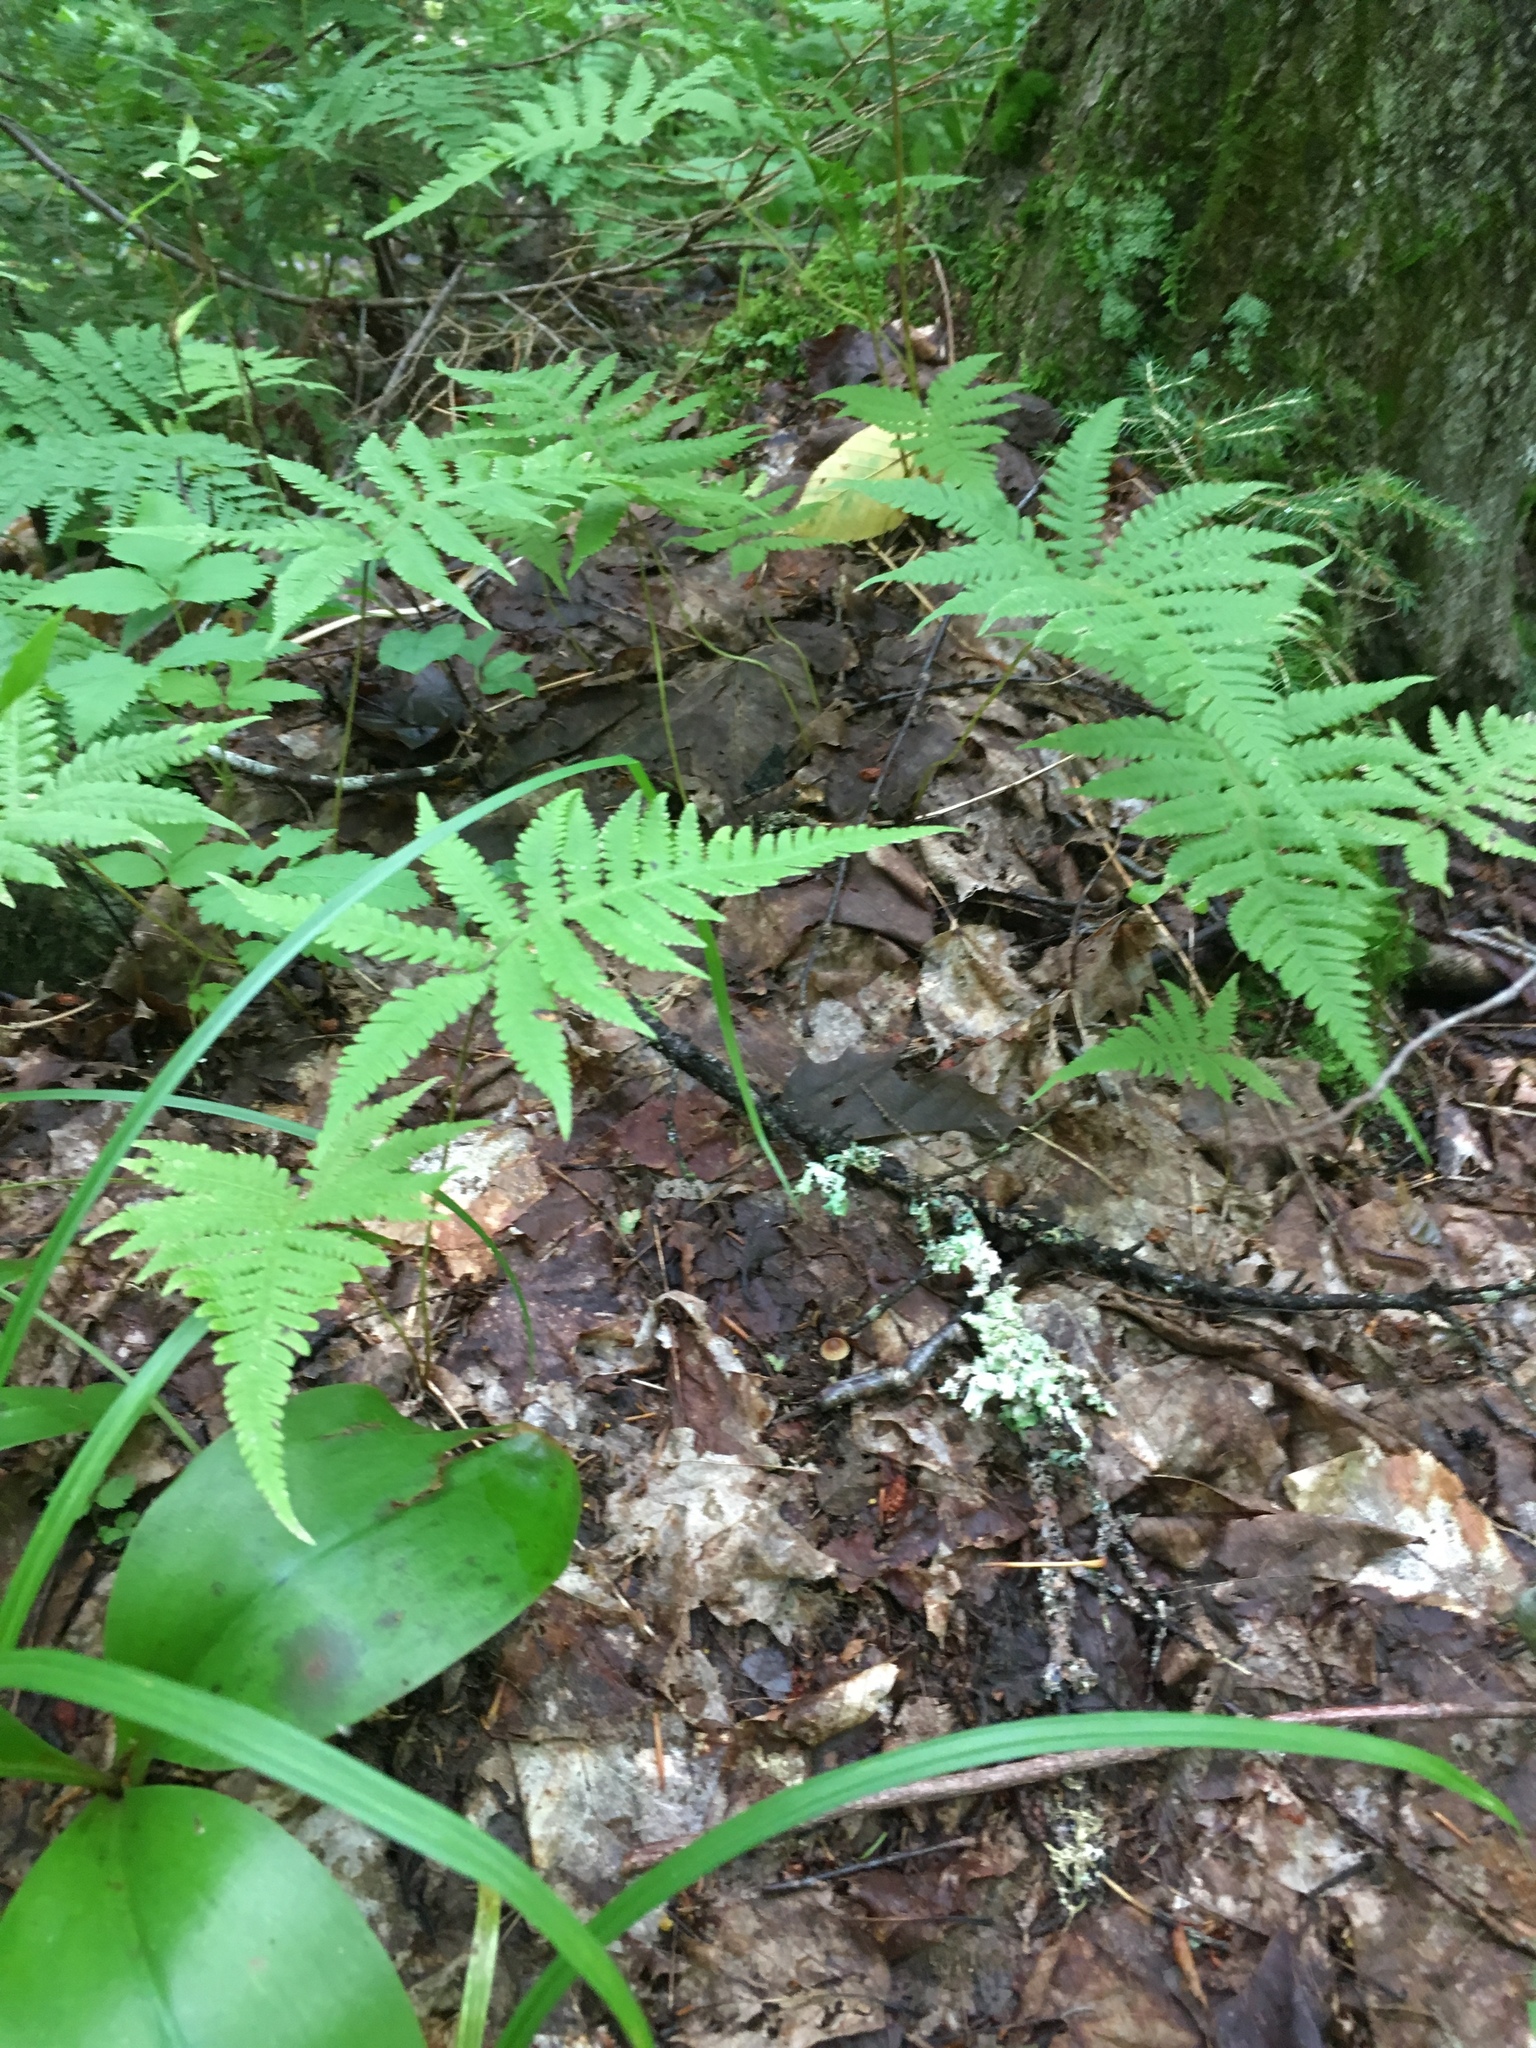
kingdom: Plantae
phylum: Tracheophyta
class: Polypodiopsida
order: Polypodiales
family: Thelypteridaceae
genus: Phegopteris
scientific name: Phegopteris connectilis
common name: Beech fern
